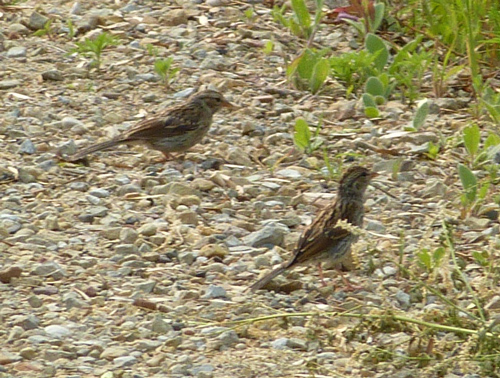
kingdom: Animalia
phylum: Chordata
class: Aves
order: Passeriformes
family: Passerellidae
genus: Spizella
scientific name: Spizella passerina
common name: Chipping sparrow
